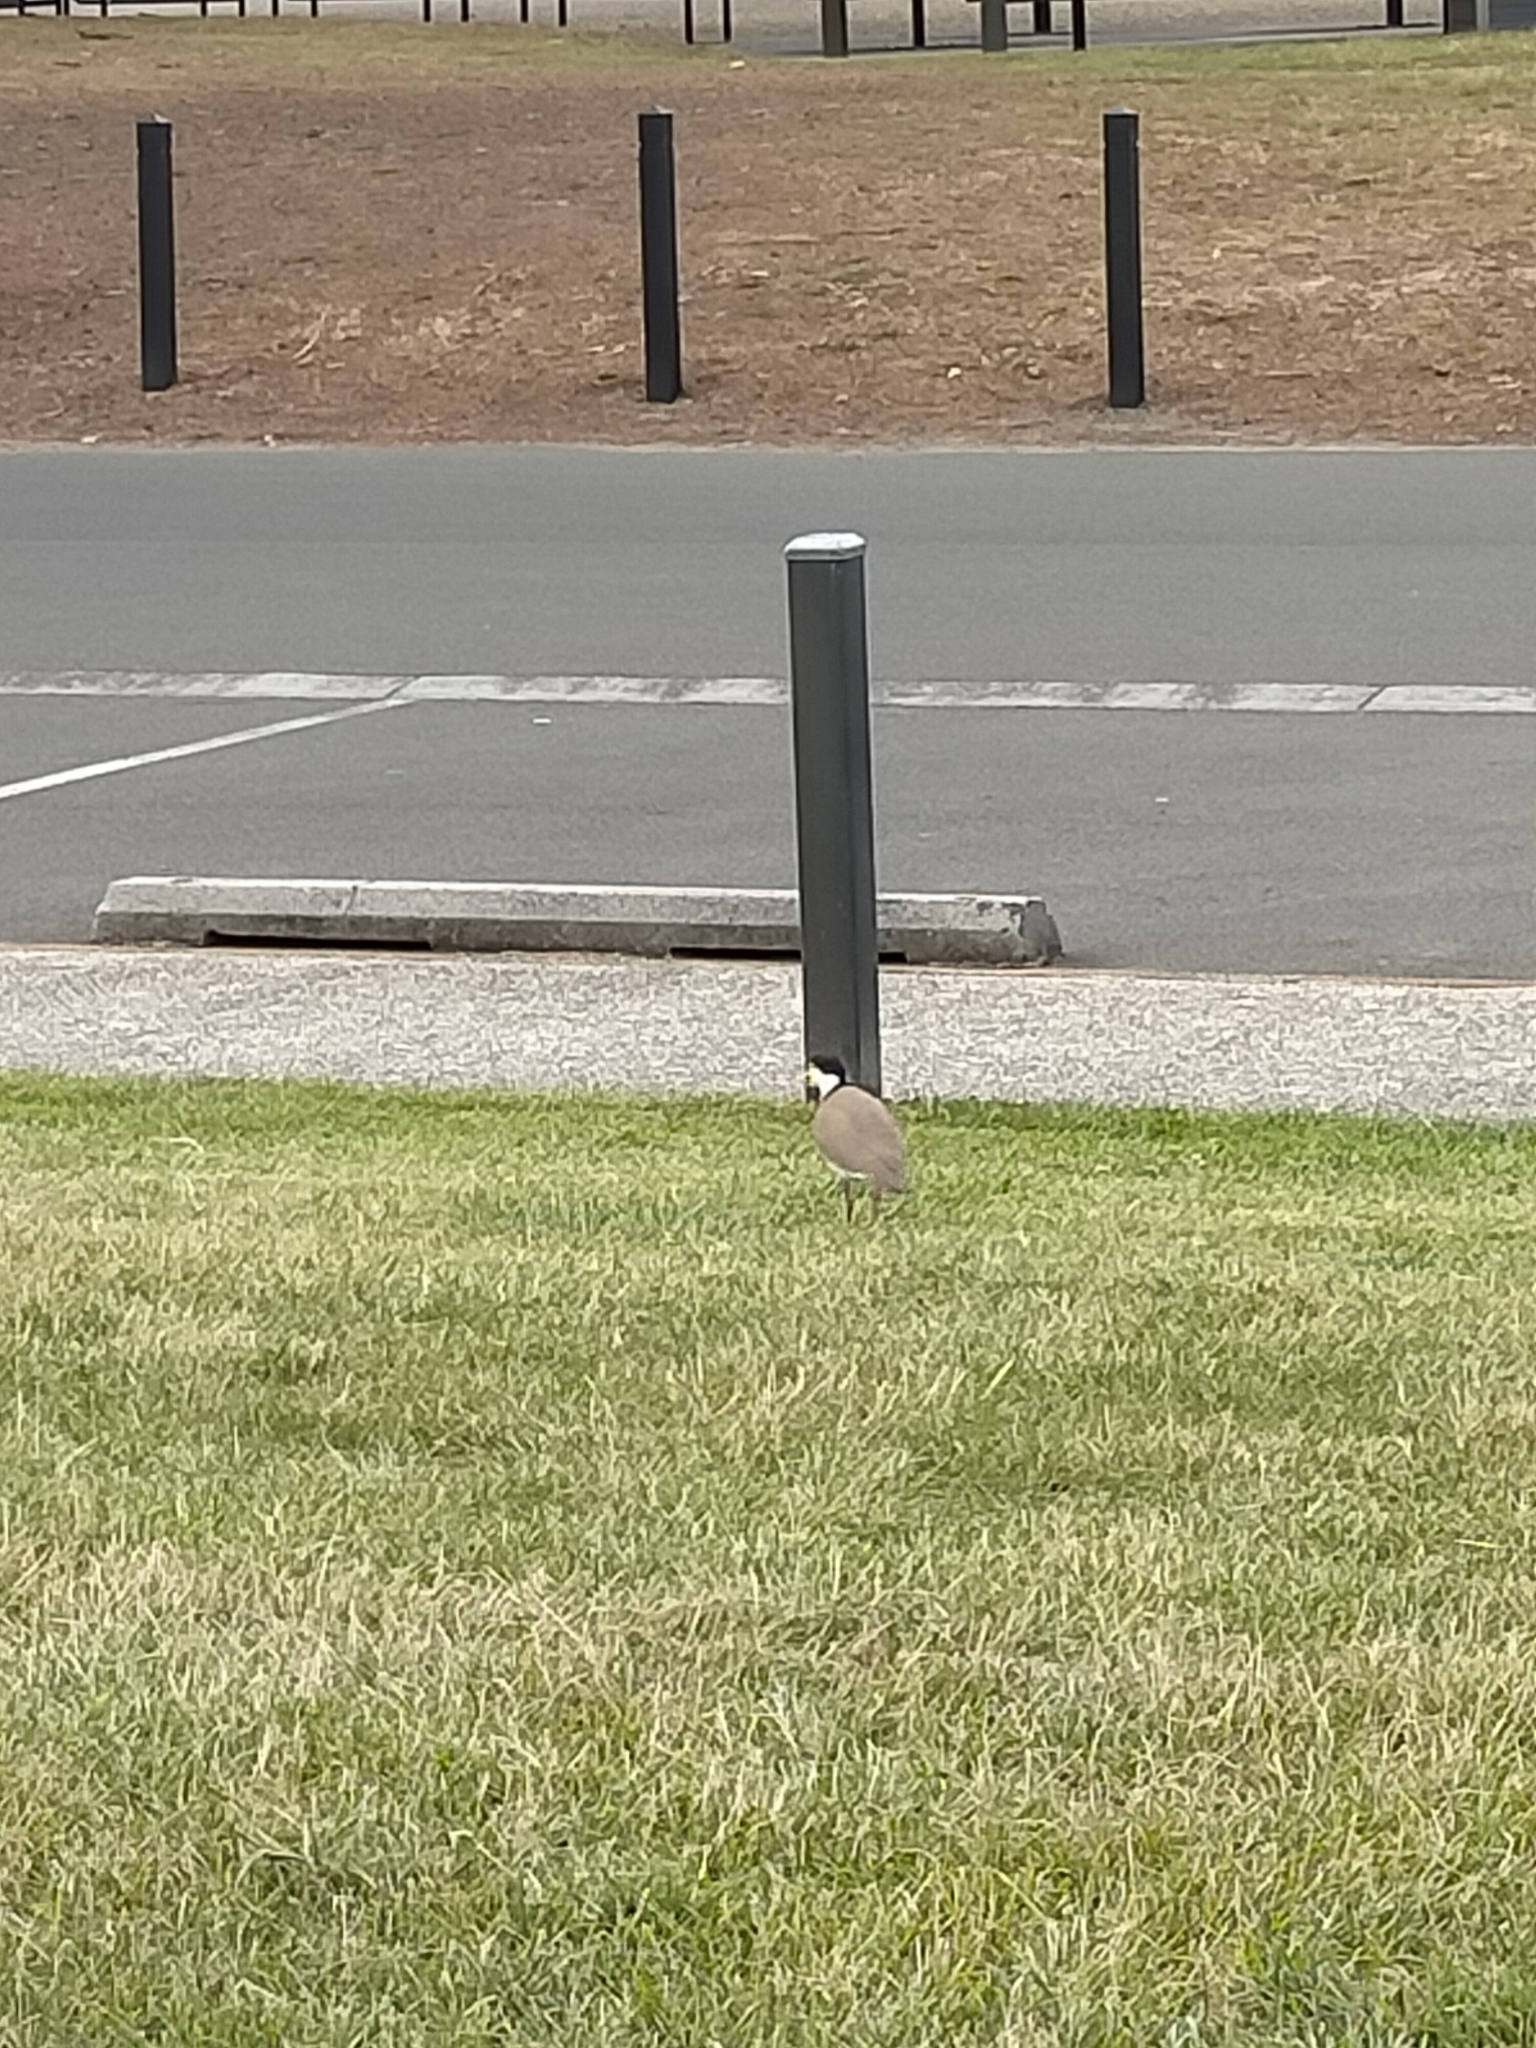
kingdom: Animalia
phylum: Chordata
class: Aves
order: Charadriiformes
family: Charadriidae
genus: Vanellus
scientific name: Vanellus miles
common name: Masked lapwing
